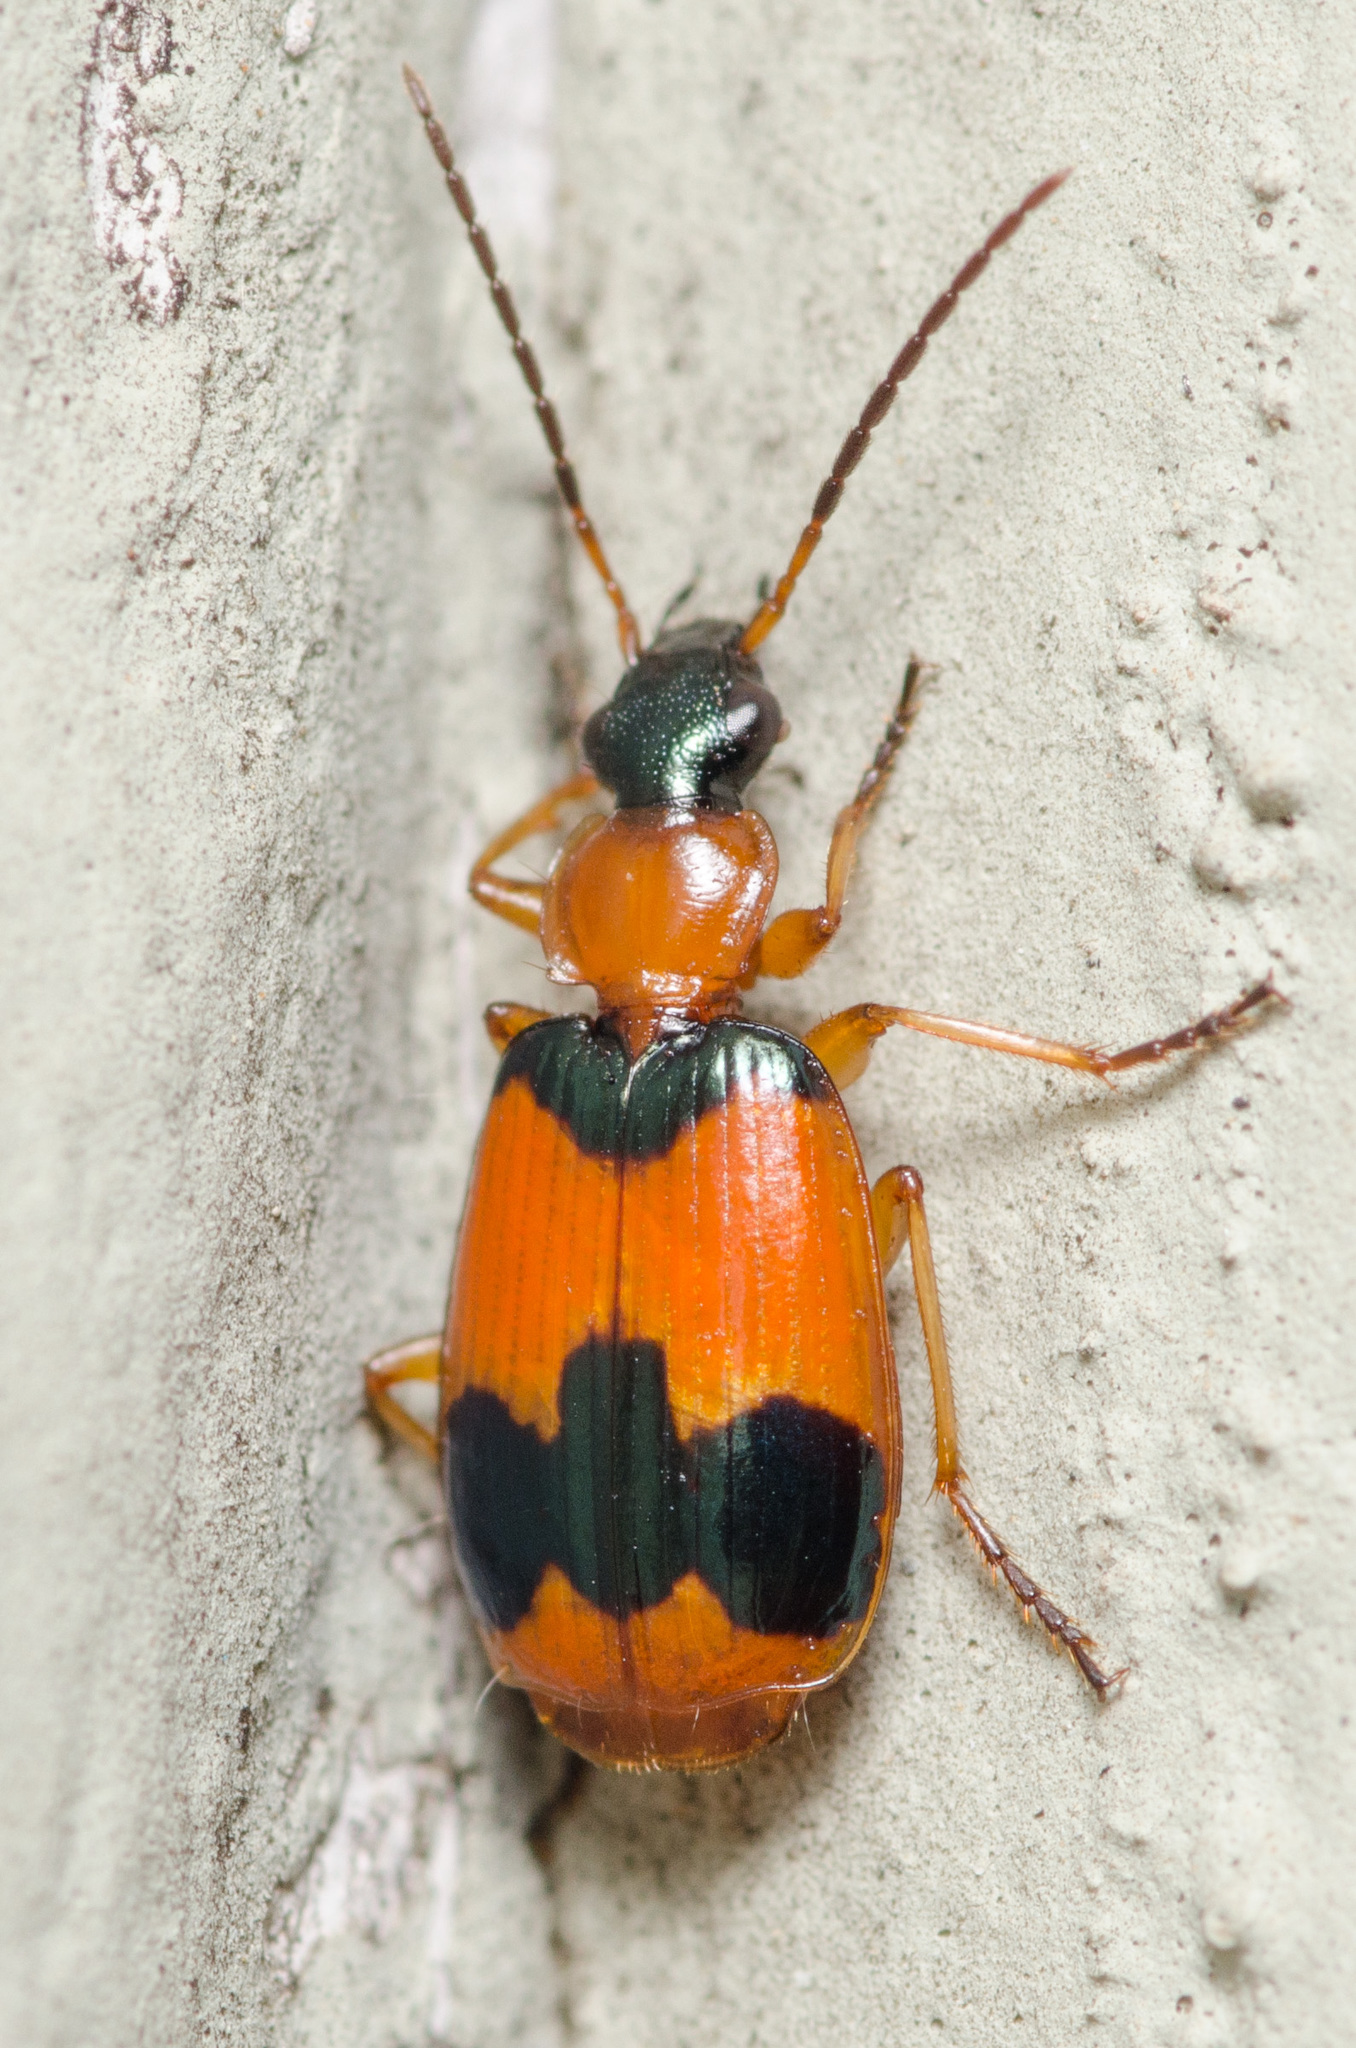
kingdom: Animalia
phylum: Arthropoda
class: Insecta
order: Coleoptera
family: Carabidae
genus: Lebia
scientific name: Lebia pulchella
